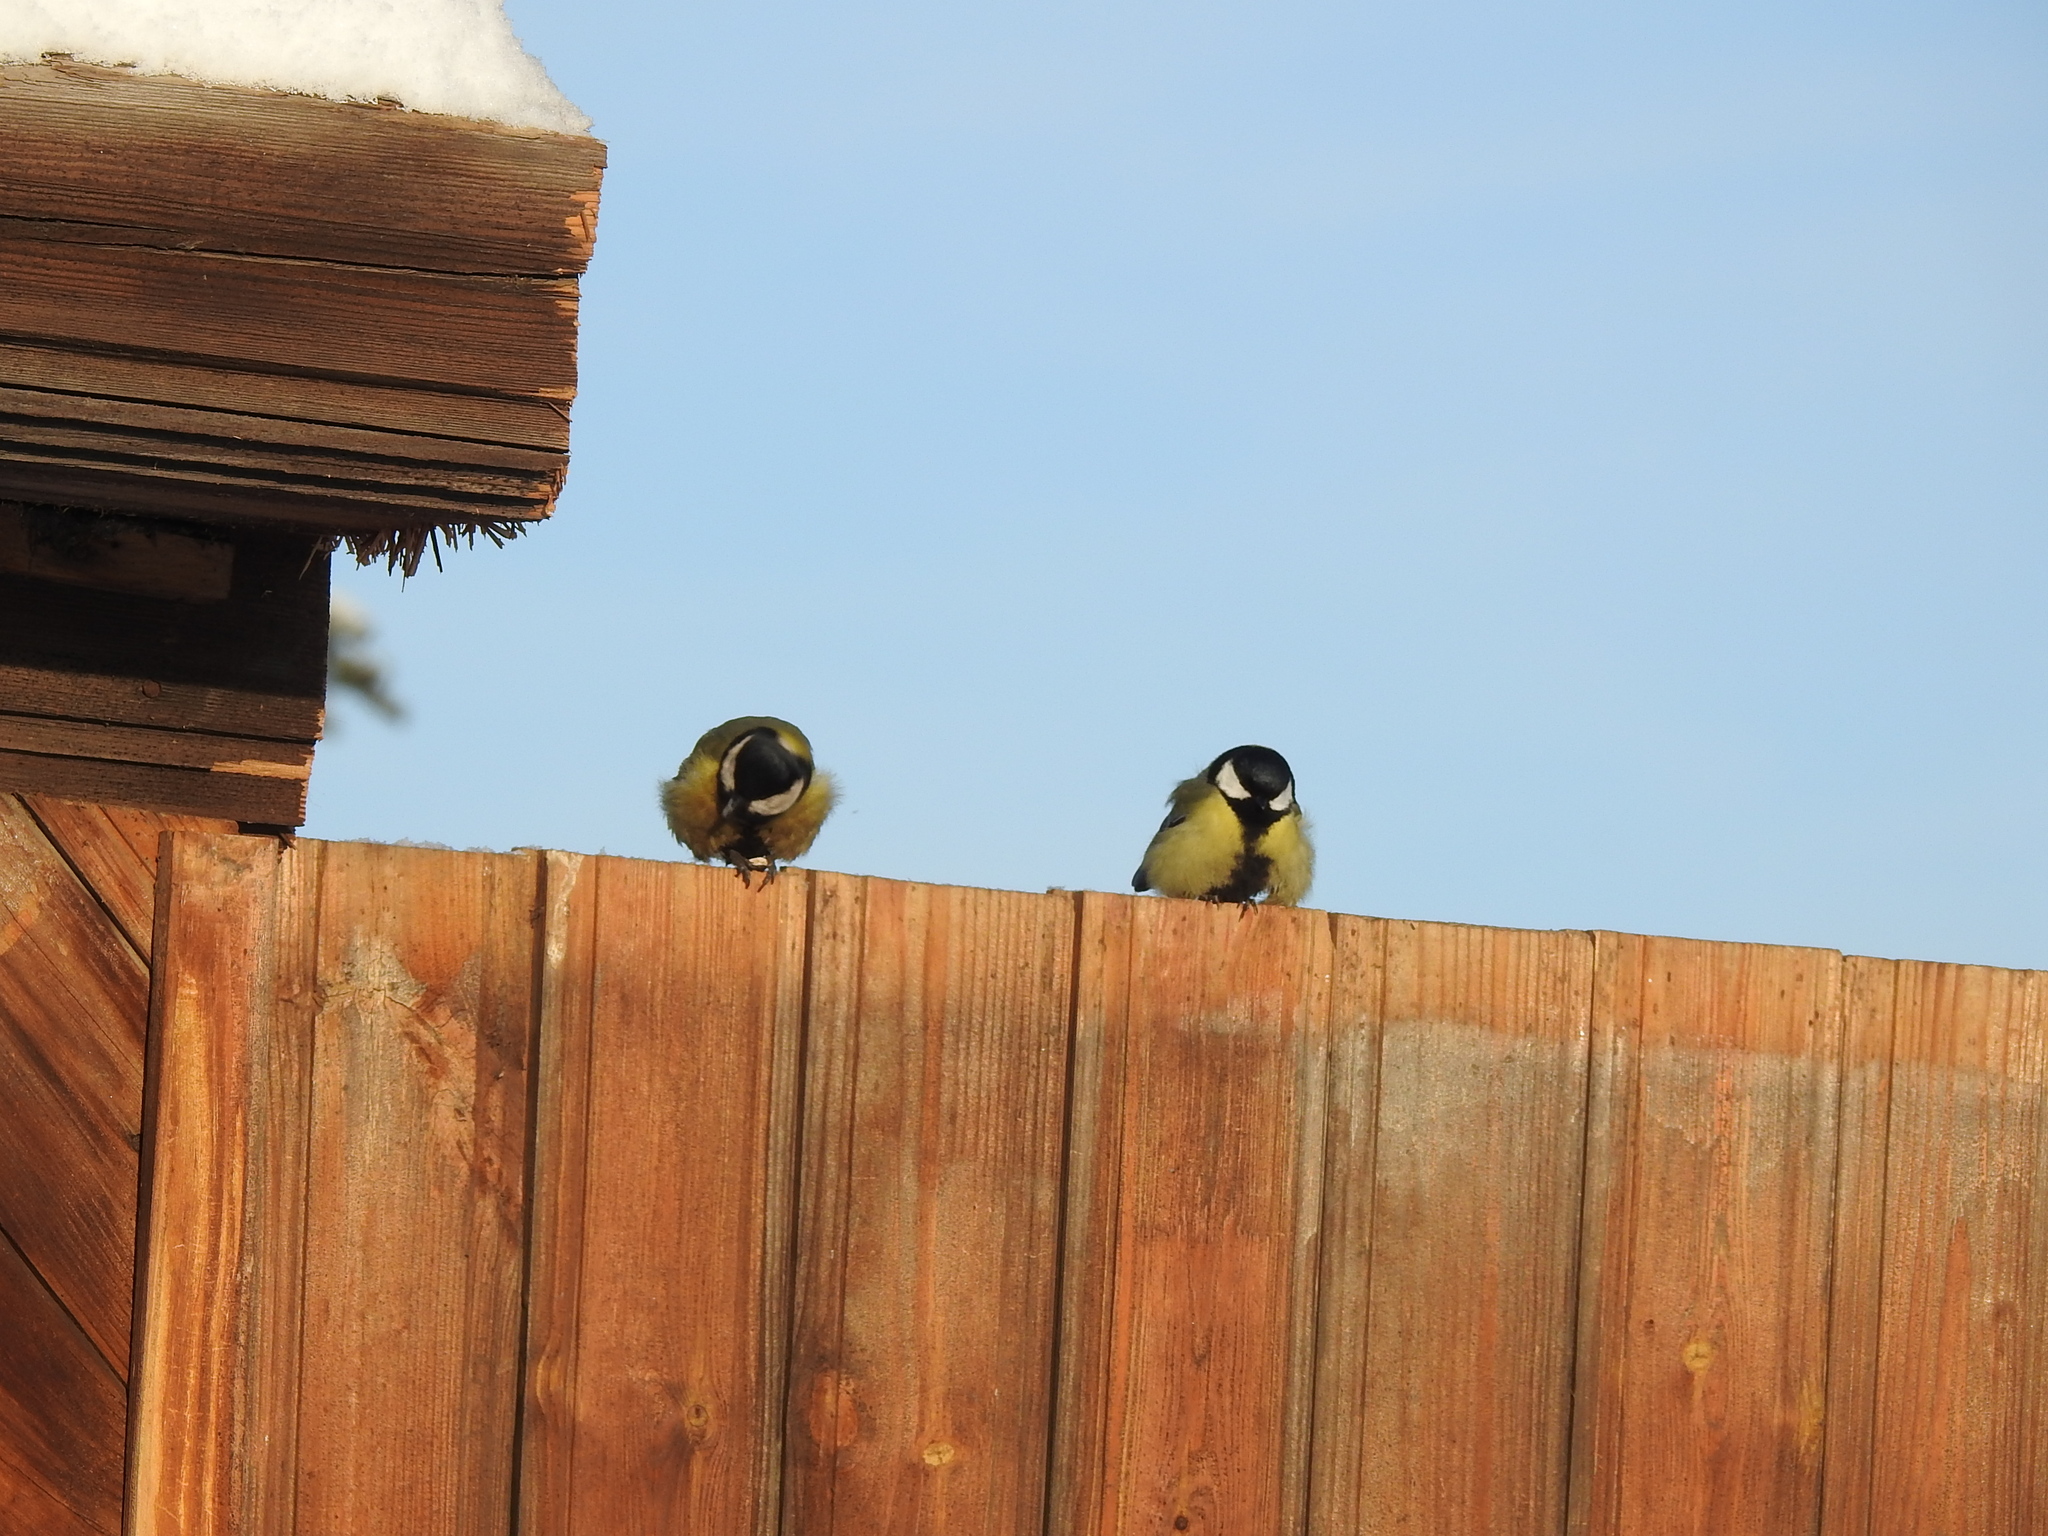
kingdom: Animalia
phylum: Chordata
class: Aves
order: Passeriformes
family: Paridae
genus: Parus
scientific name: Parus major
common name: Great tit
